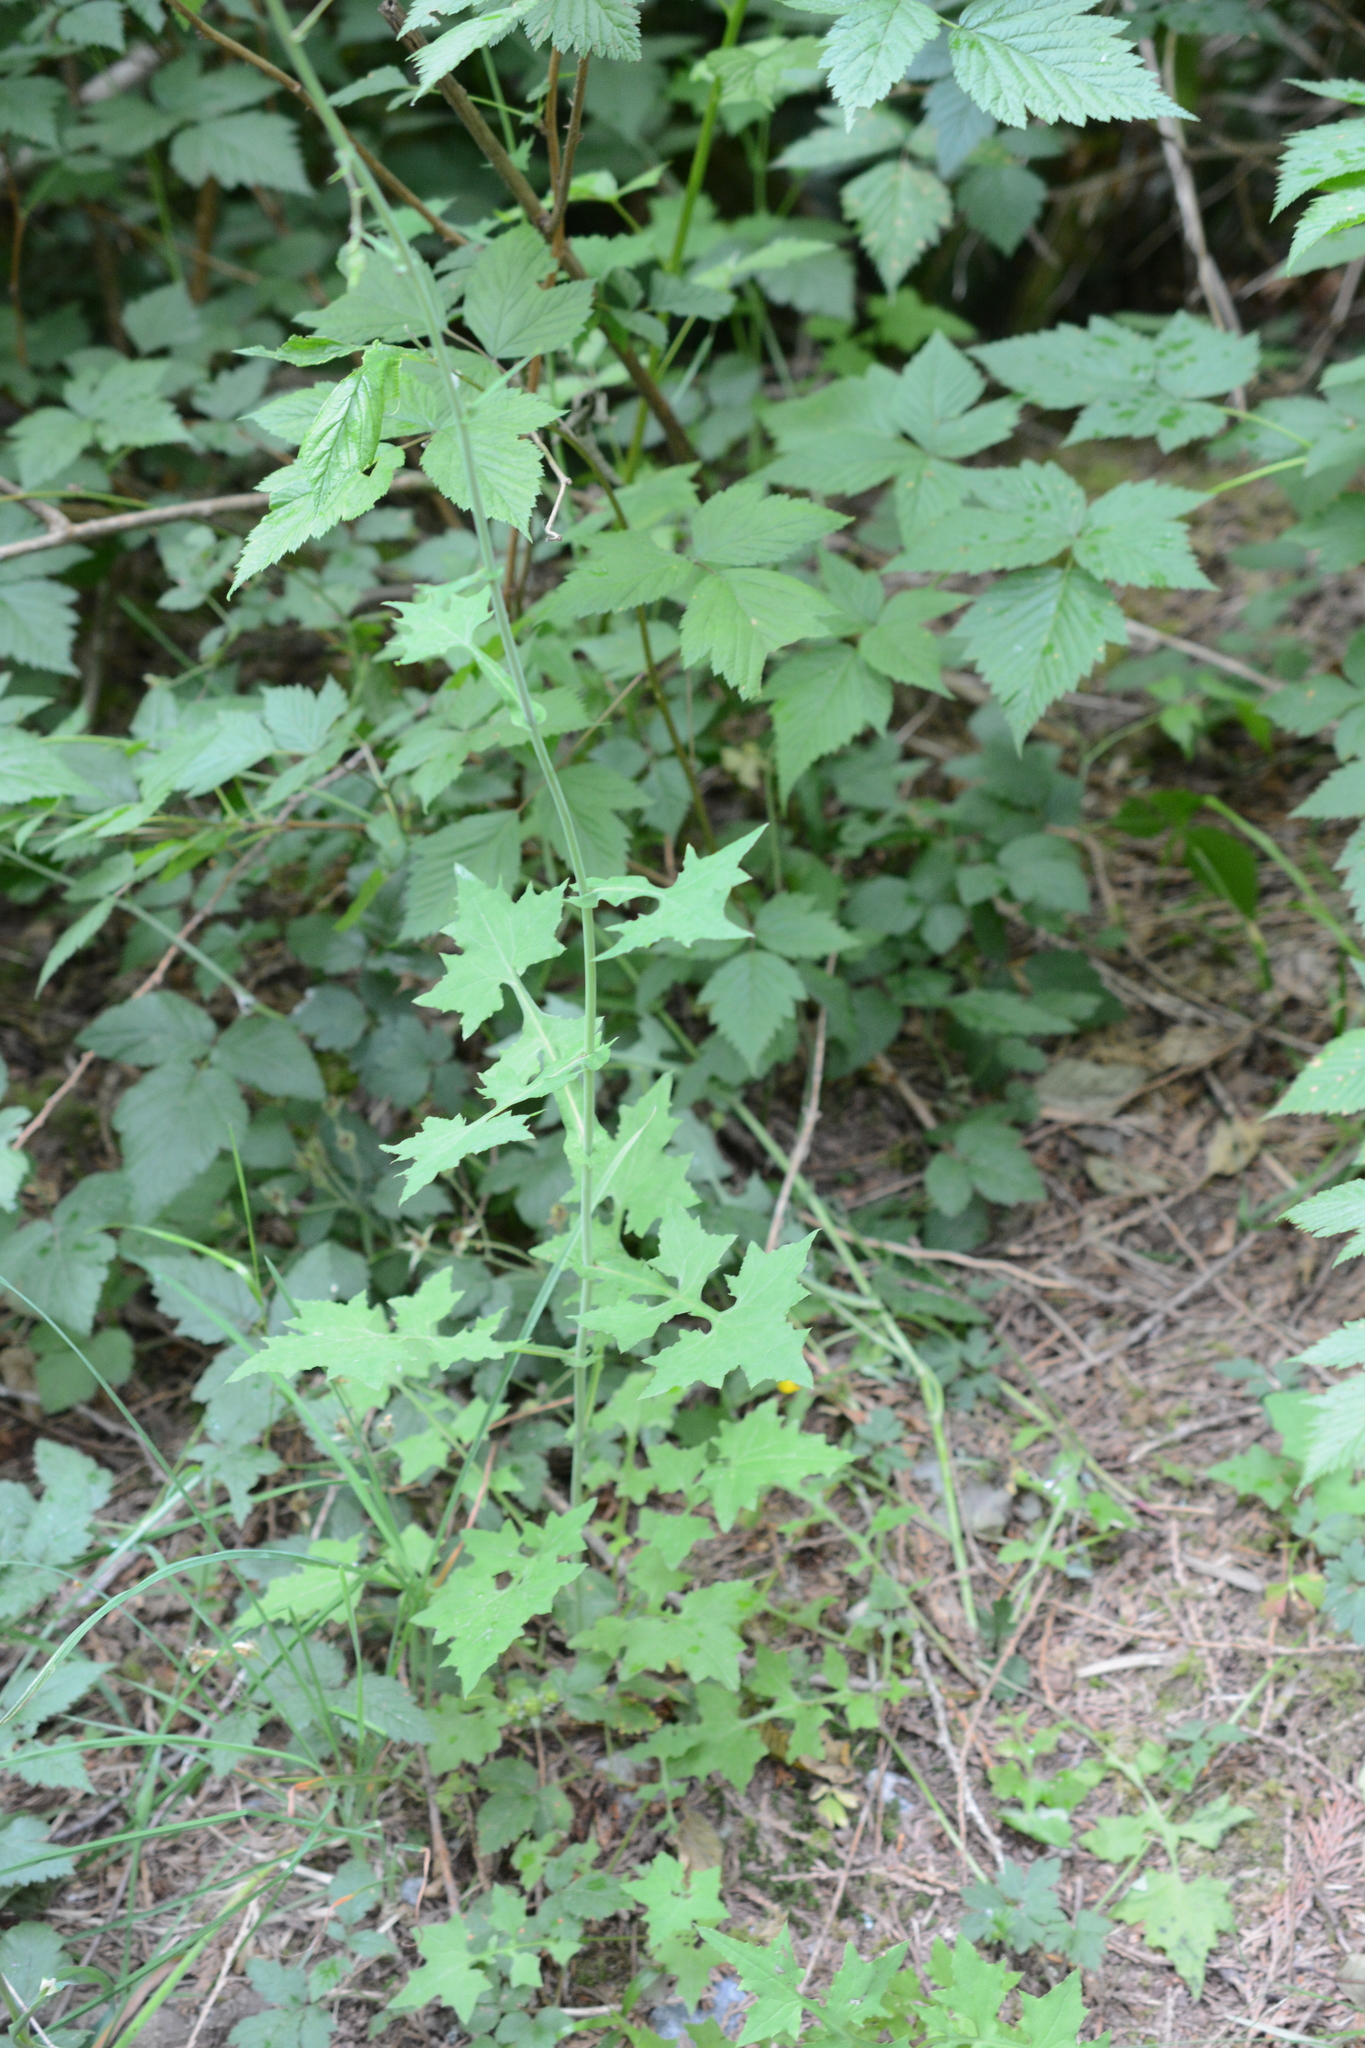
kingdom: Plantae
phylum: Tracheophyta
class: Magnoliopsida
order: Asterales
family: Asteraceae
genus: Mycelis
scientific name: Mycelis muralis
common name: Wall lettuce
